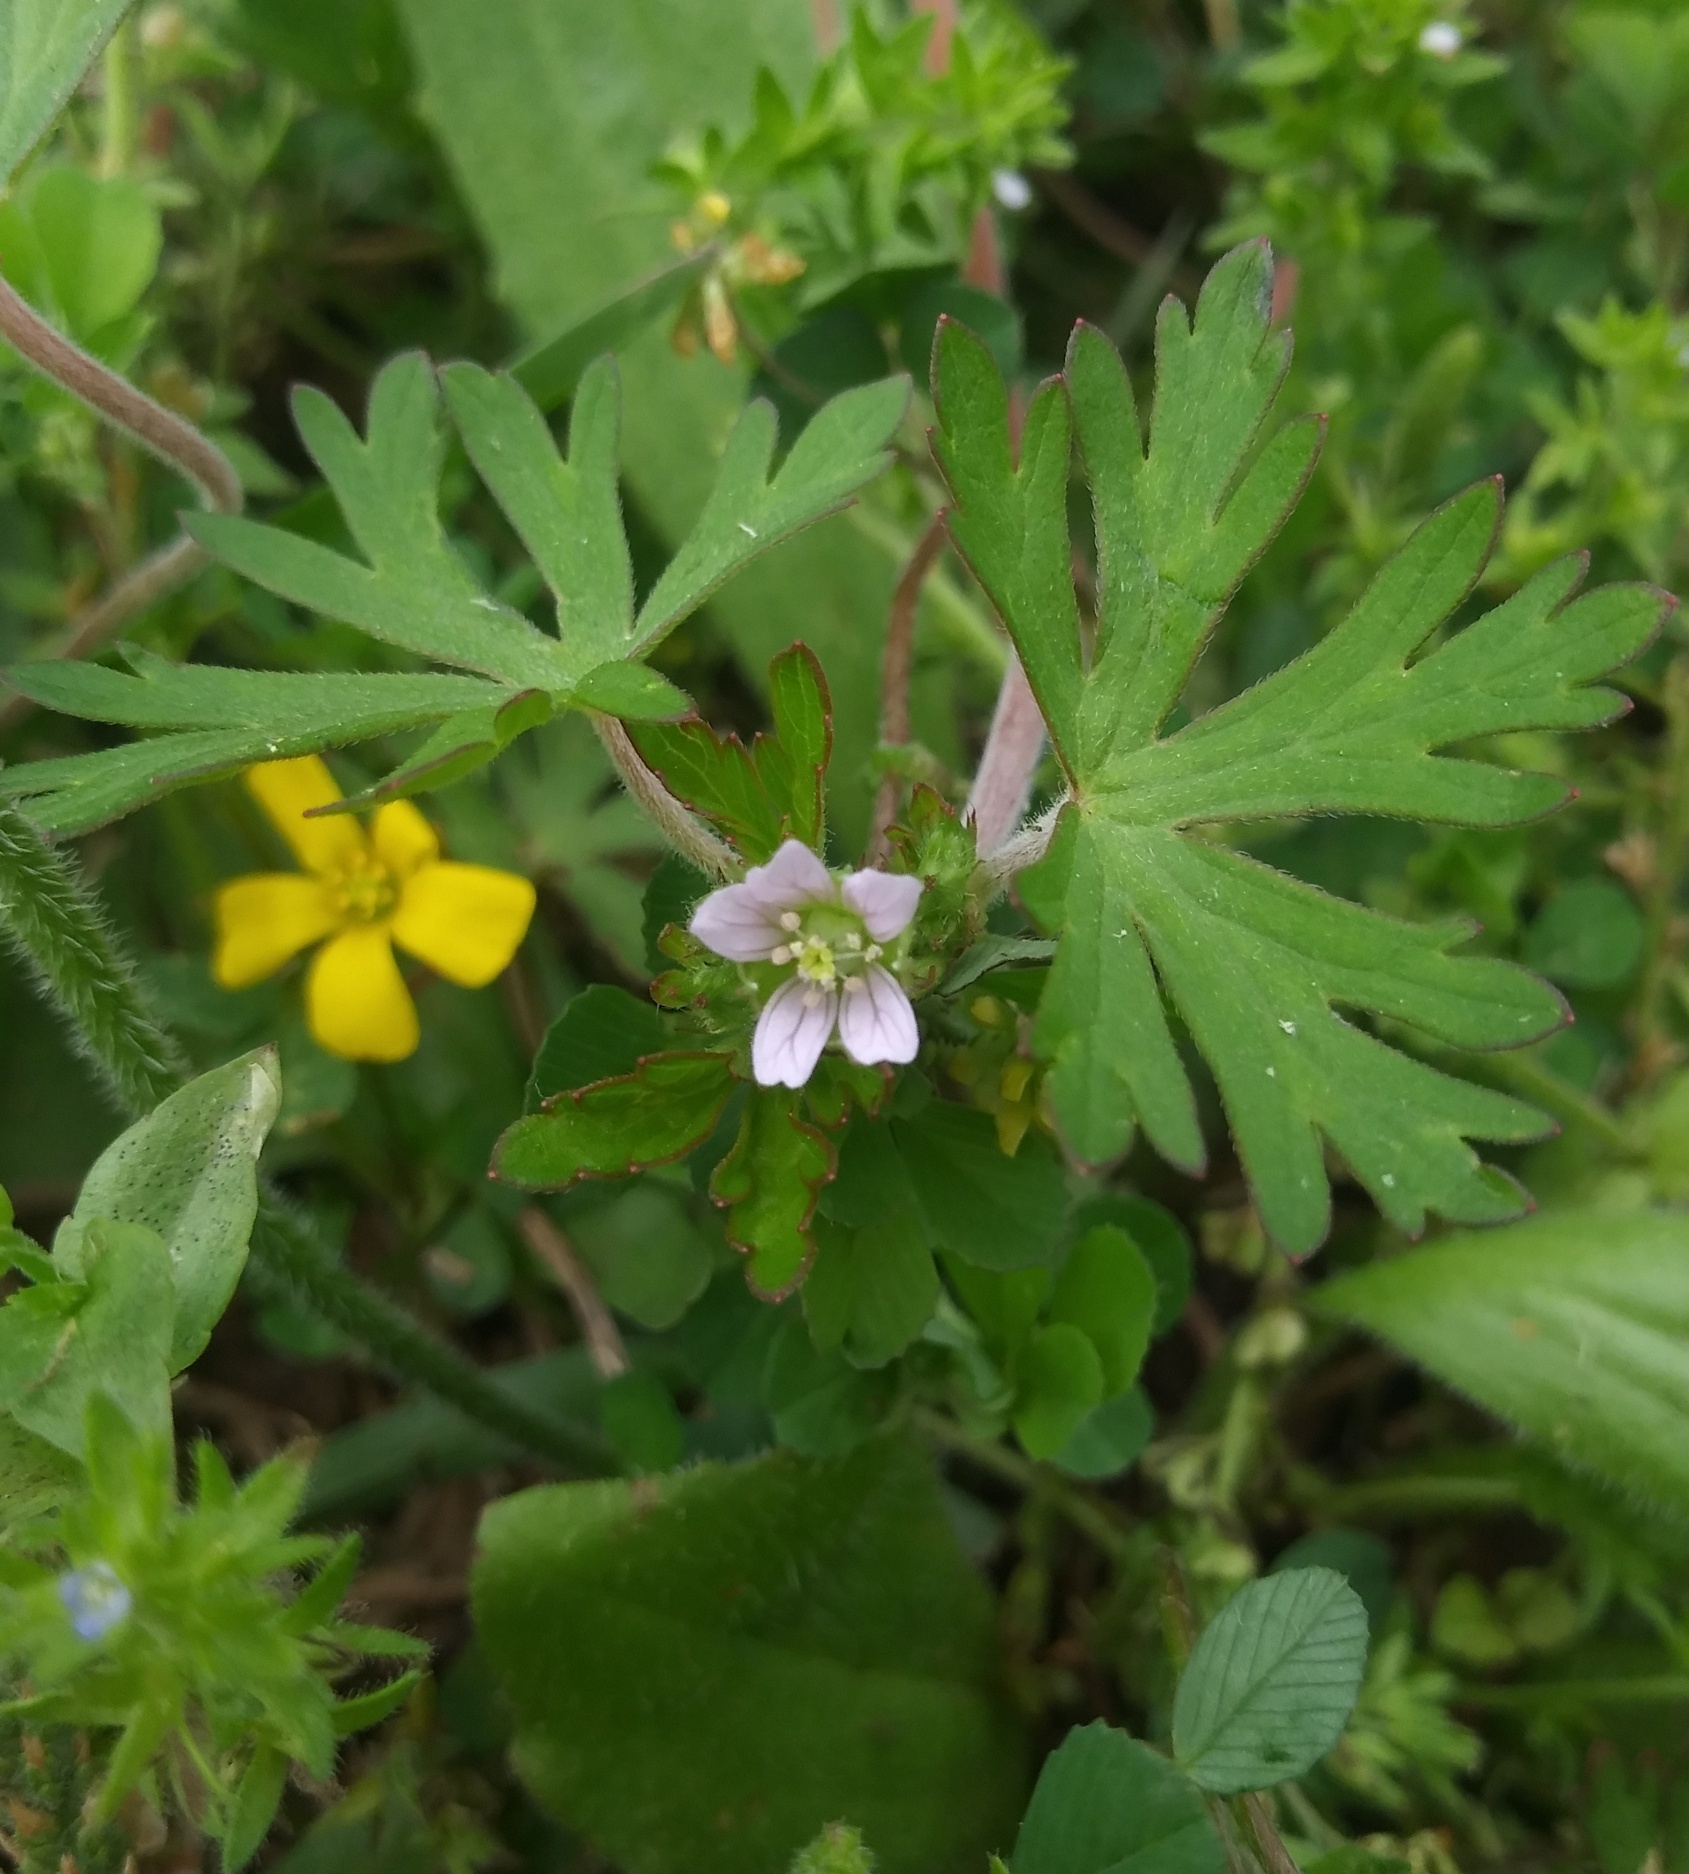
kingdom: Plantae
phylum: Tracheophyta
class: Magnoliopsida
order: Geraniales
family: Geraniaceae
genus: Geranium
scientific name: Geranium carolinianum
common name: Carolina crane's-bill
